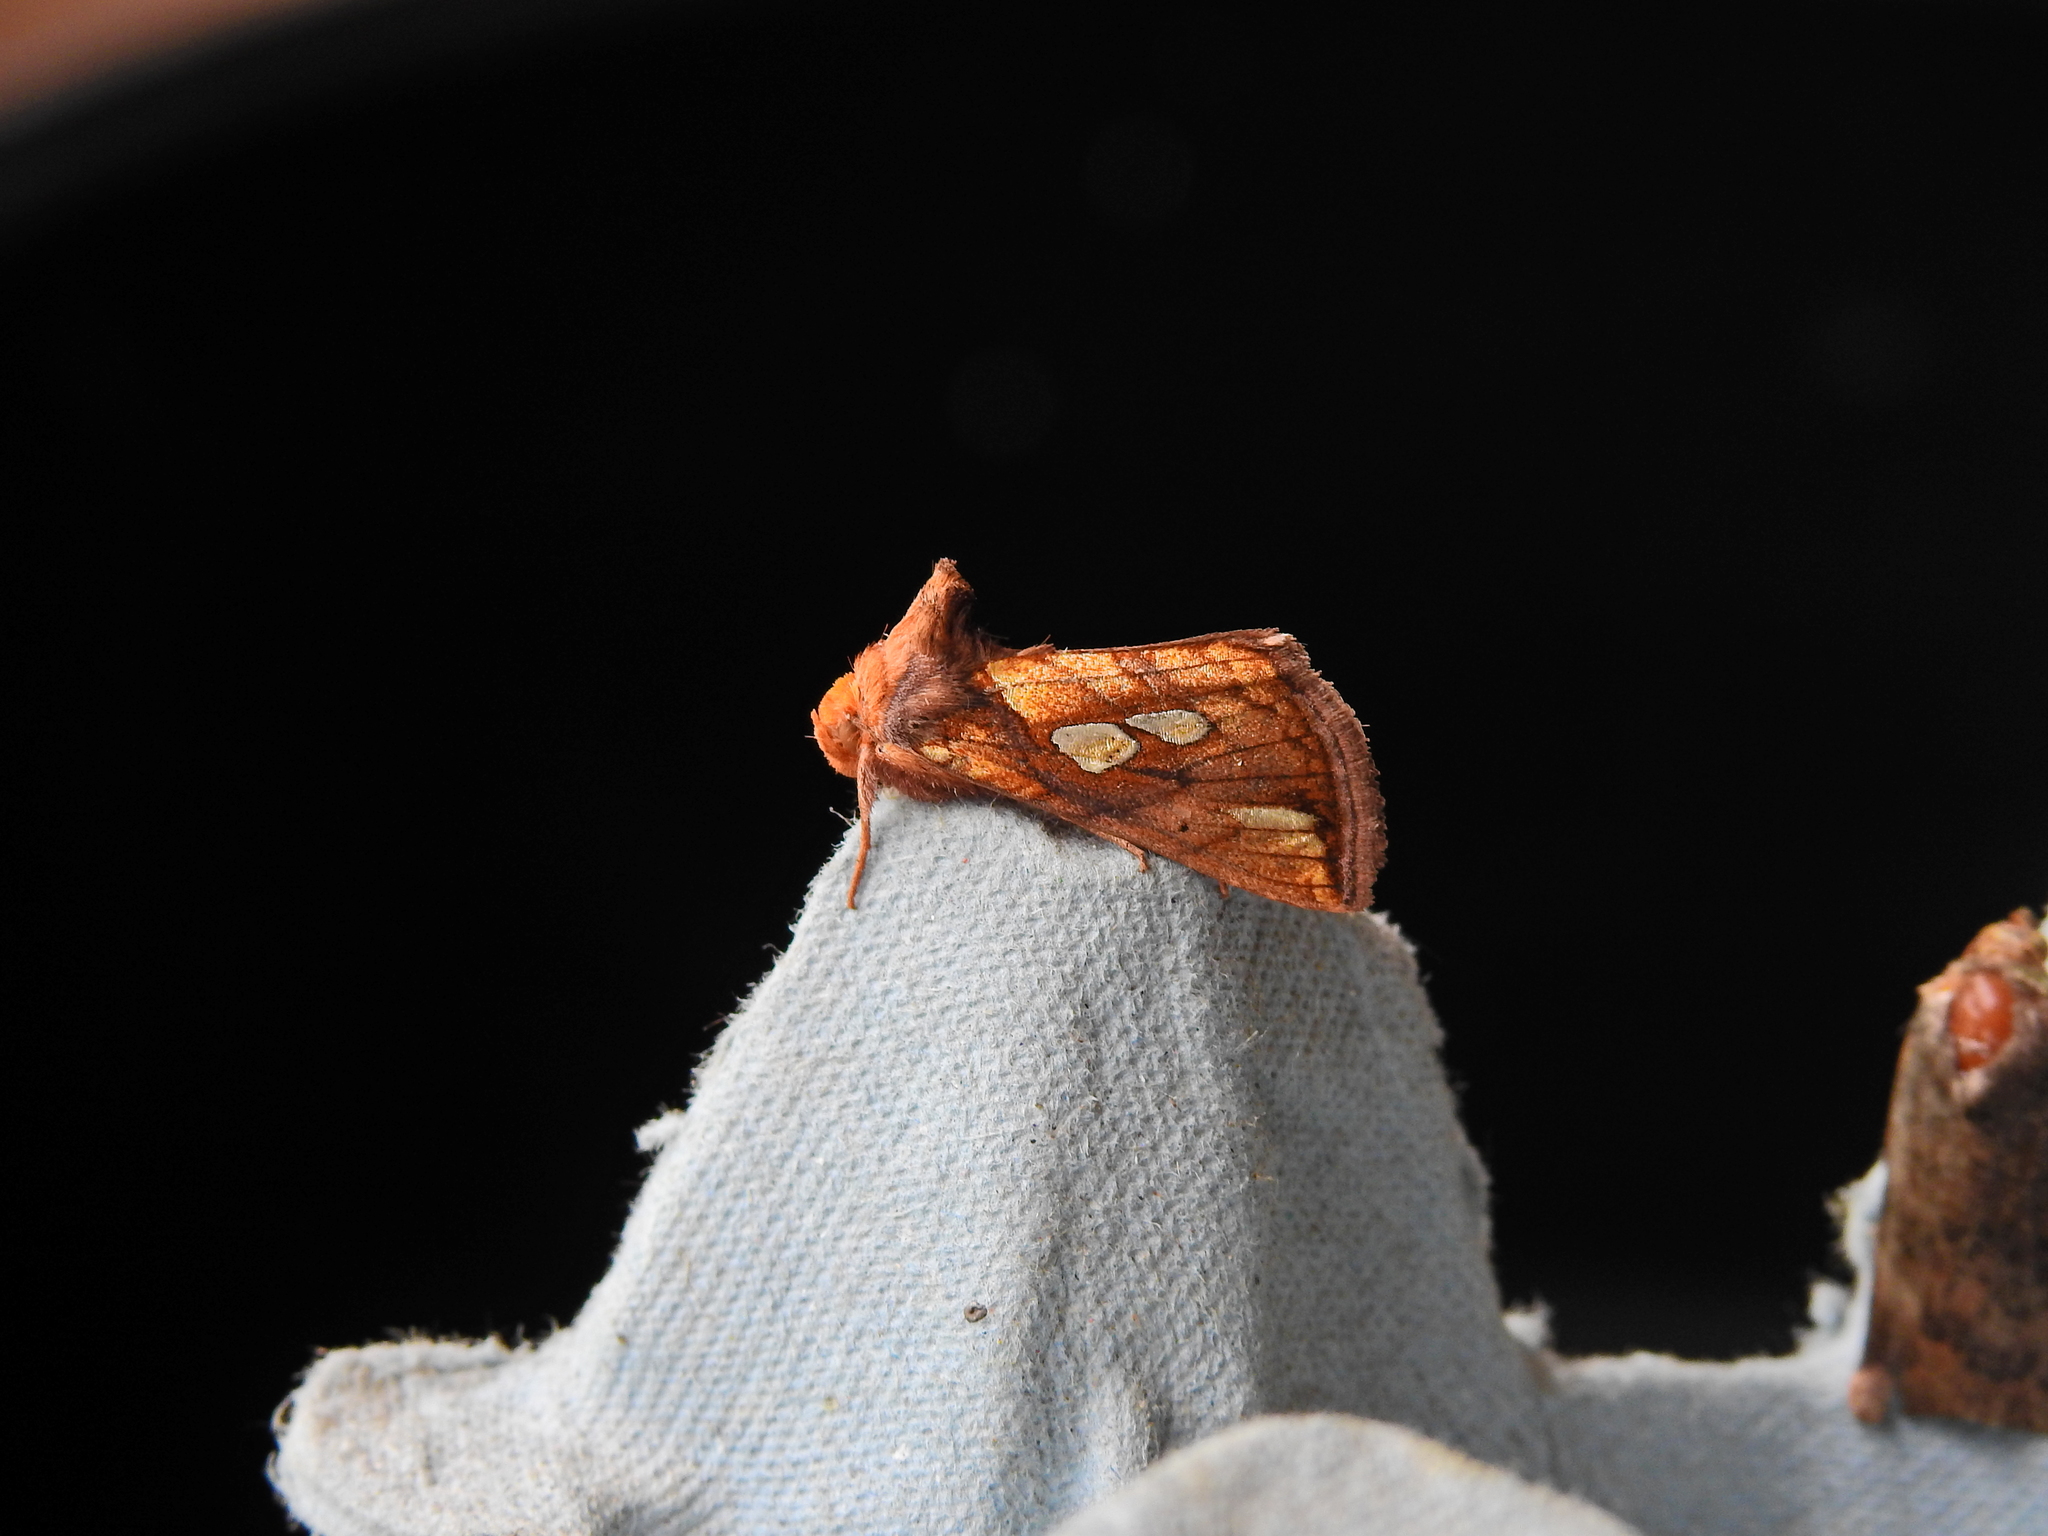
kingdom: Animalia
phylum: Arthropoda
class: Insecta
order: Lepidoptera
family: Noctuidae
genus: Plusia
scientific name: Plusia festucae
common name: Gold spot
